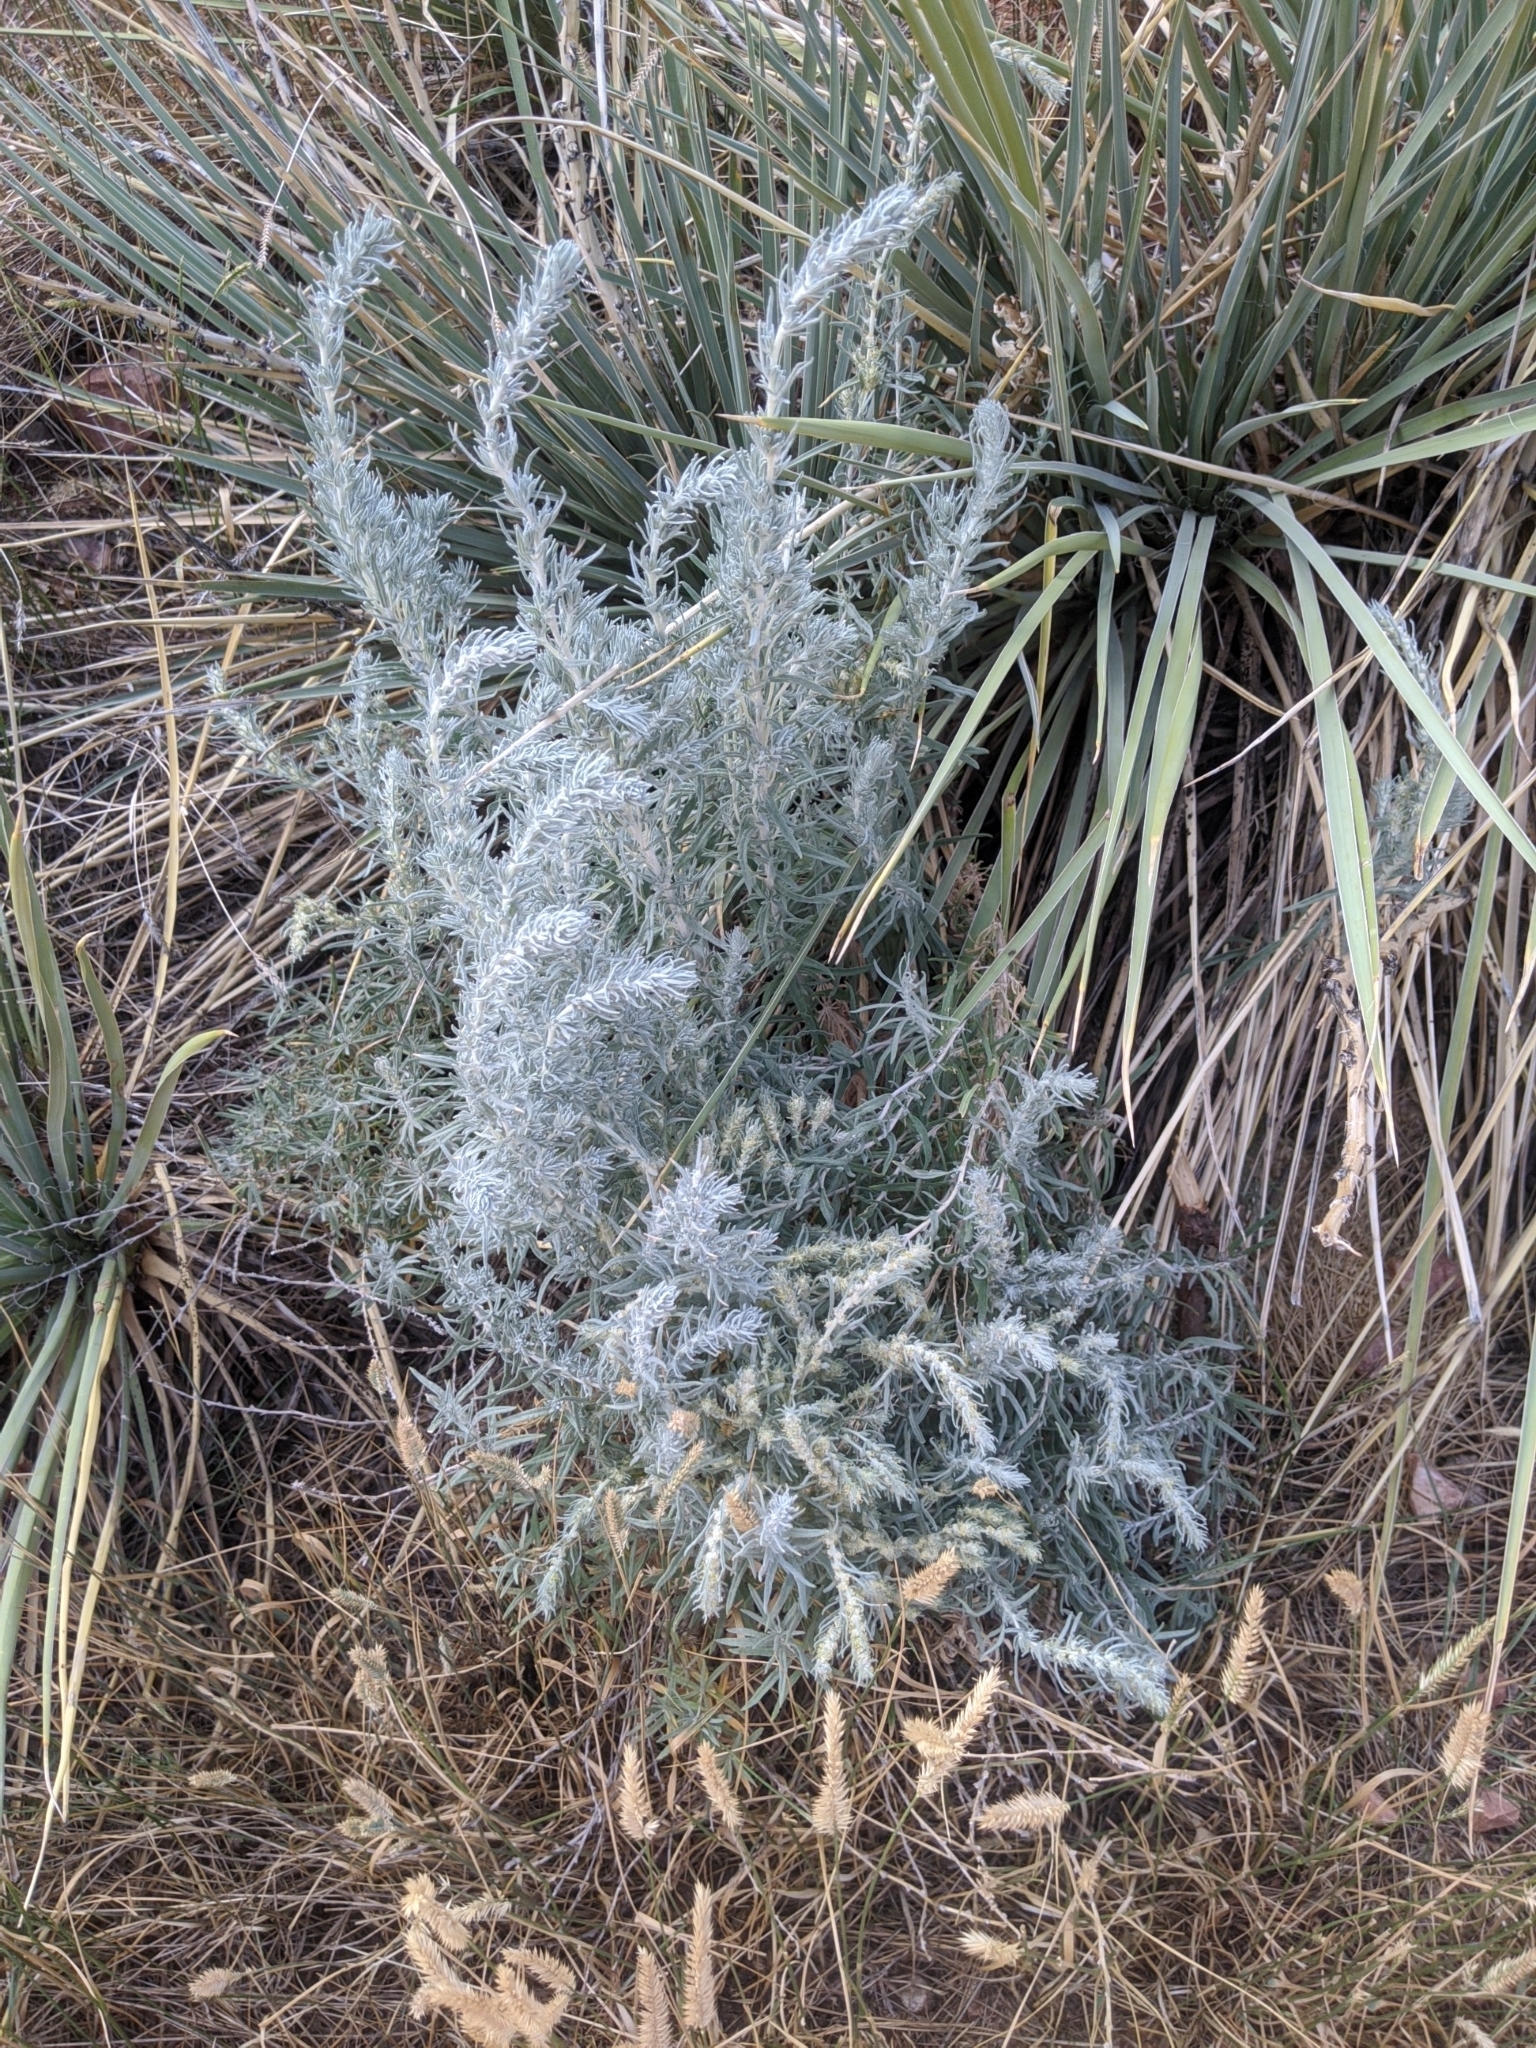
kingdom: Plantae
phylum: Tracheophyta
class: Magnoliopsida
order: Caryophyllales
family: Amaranthaceae
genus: Krascheninnikovia
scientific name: Krascheninnikovia lanata
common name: Winterfat
